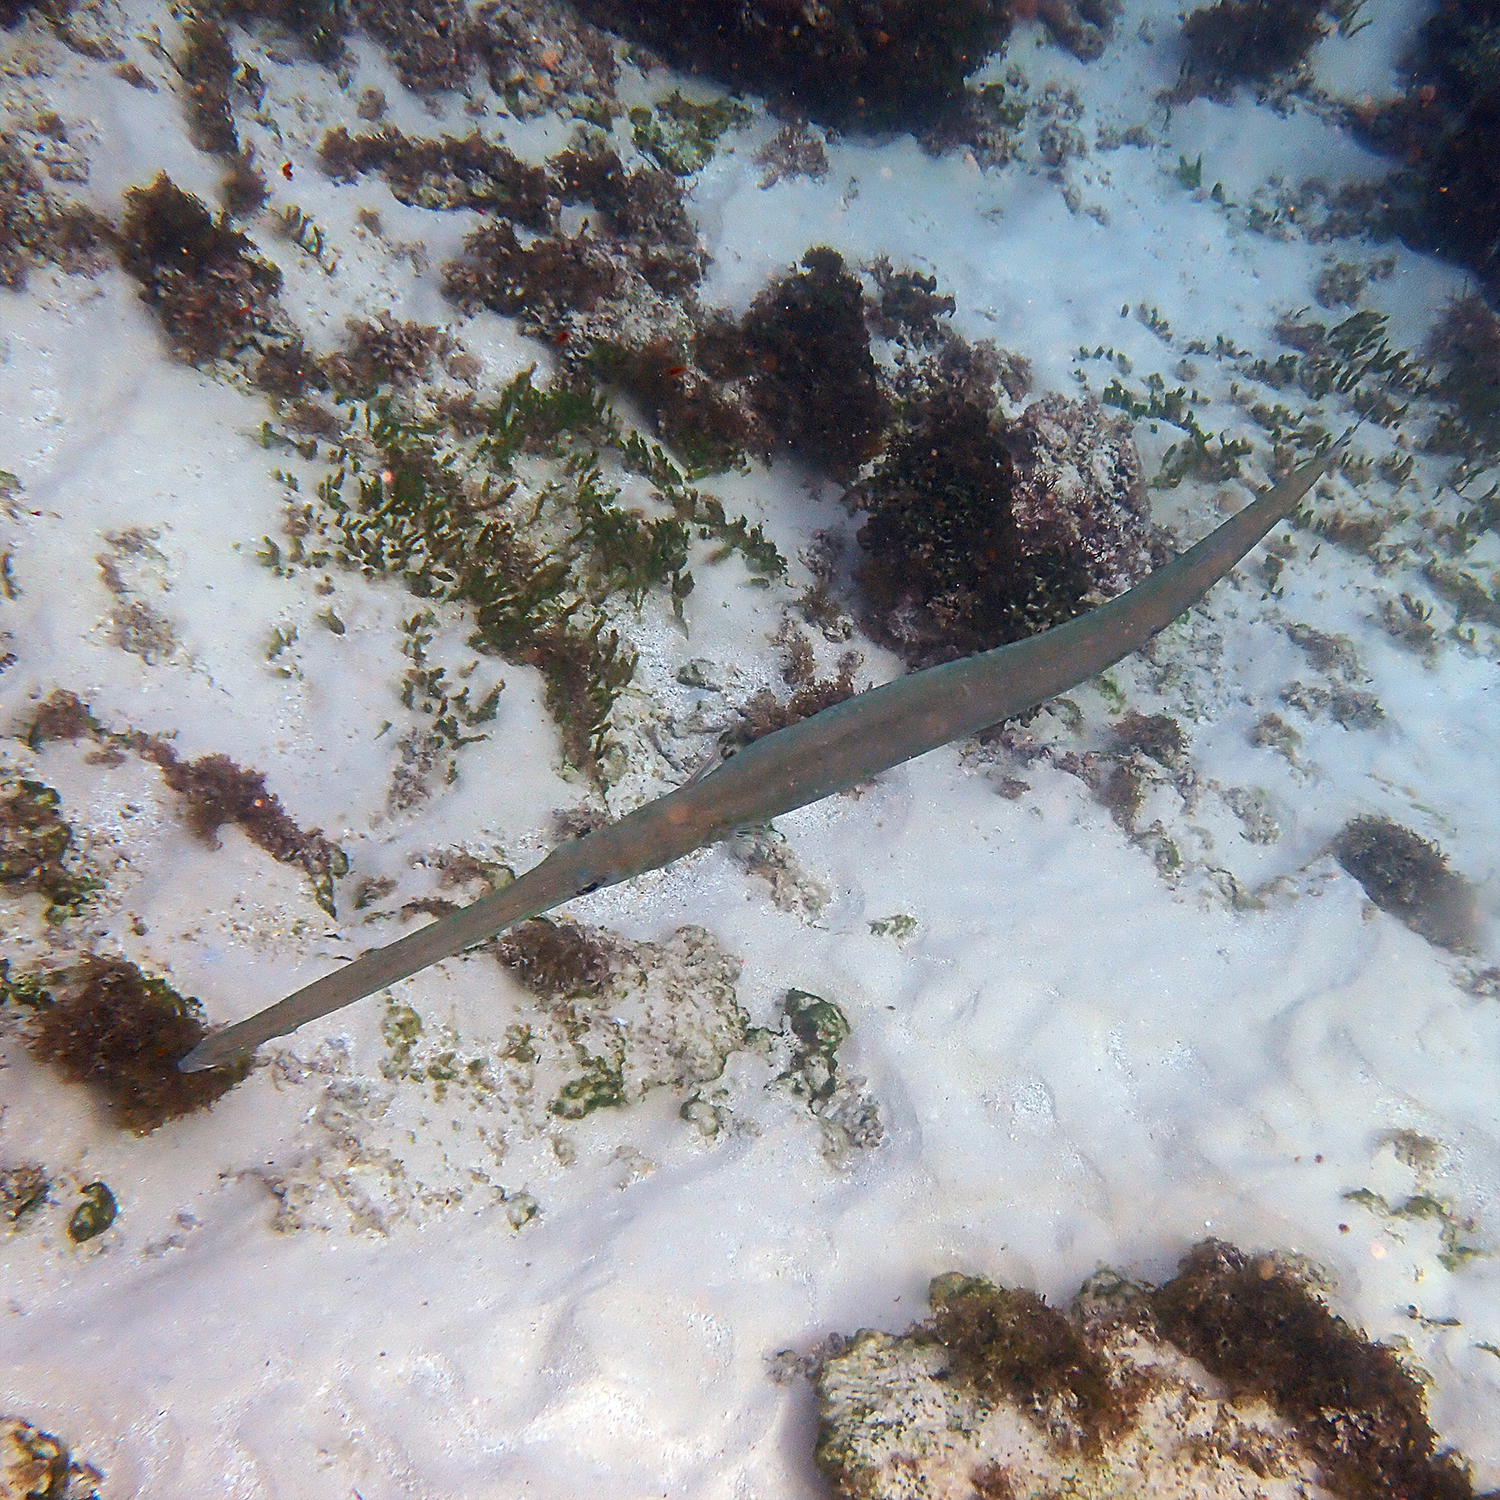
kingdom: Animalia
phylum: Chordata
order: Syngnathiformes
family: Fistulariidae
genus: Fistularia
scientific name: Fistularia commersonii
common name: Bluespotted cornetfish
